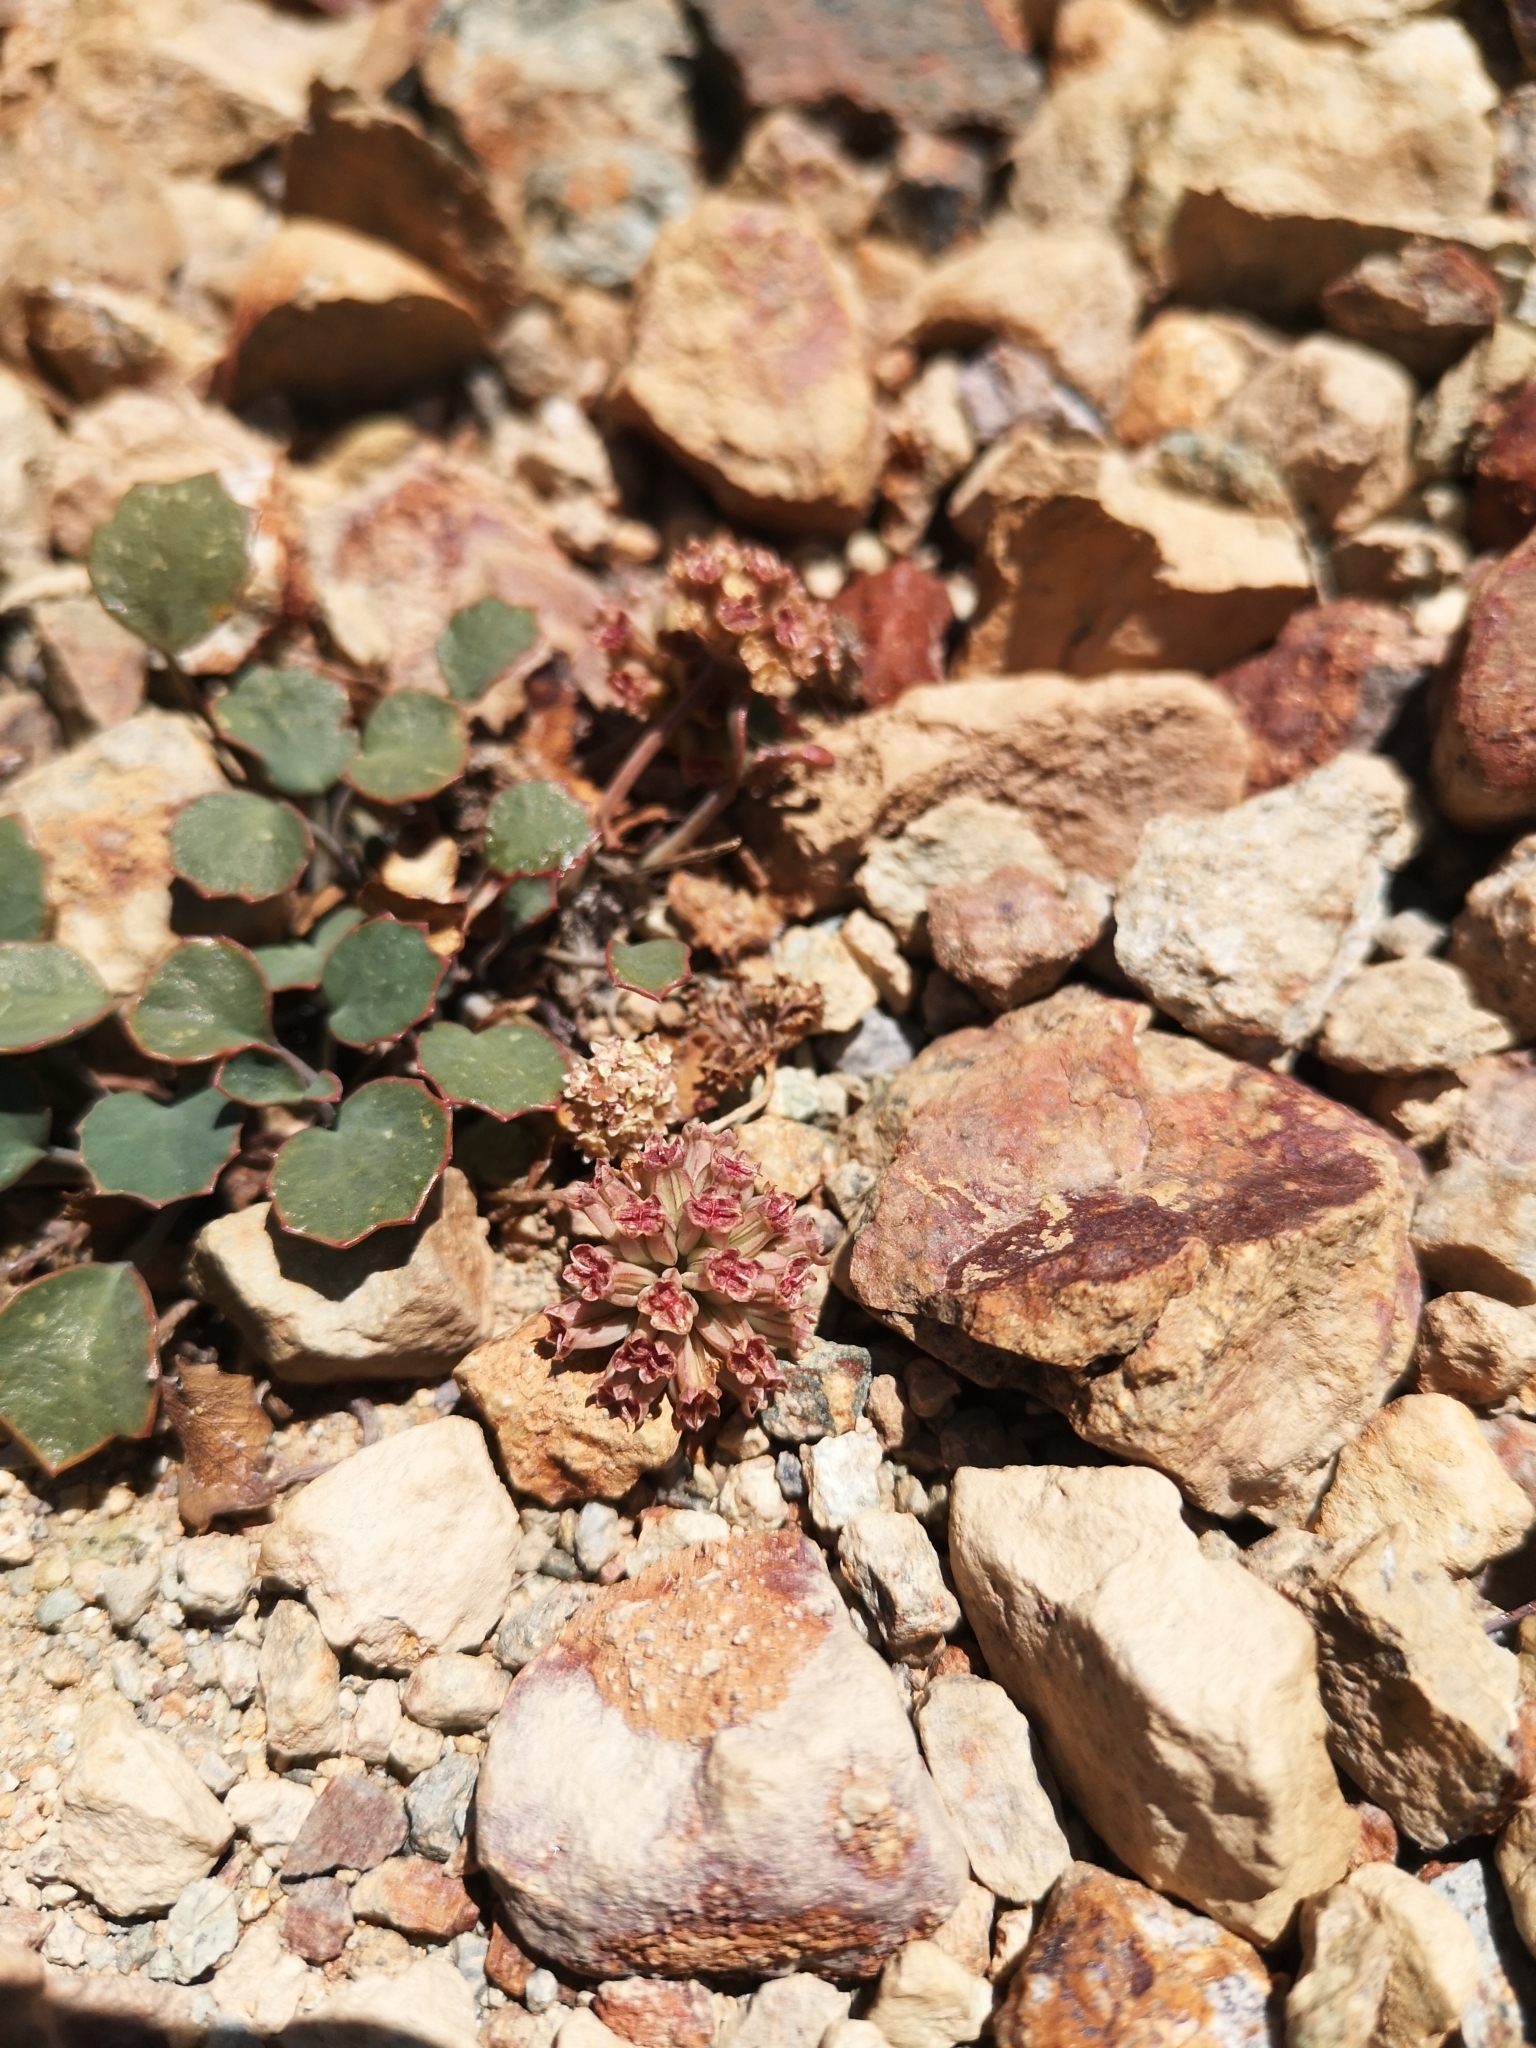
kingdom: Plantae
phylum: Tracheophyta
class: Magnoliopsida
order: Apiales
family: Apiaceae
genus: Pozoa
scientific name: Pozoa coriacea
